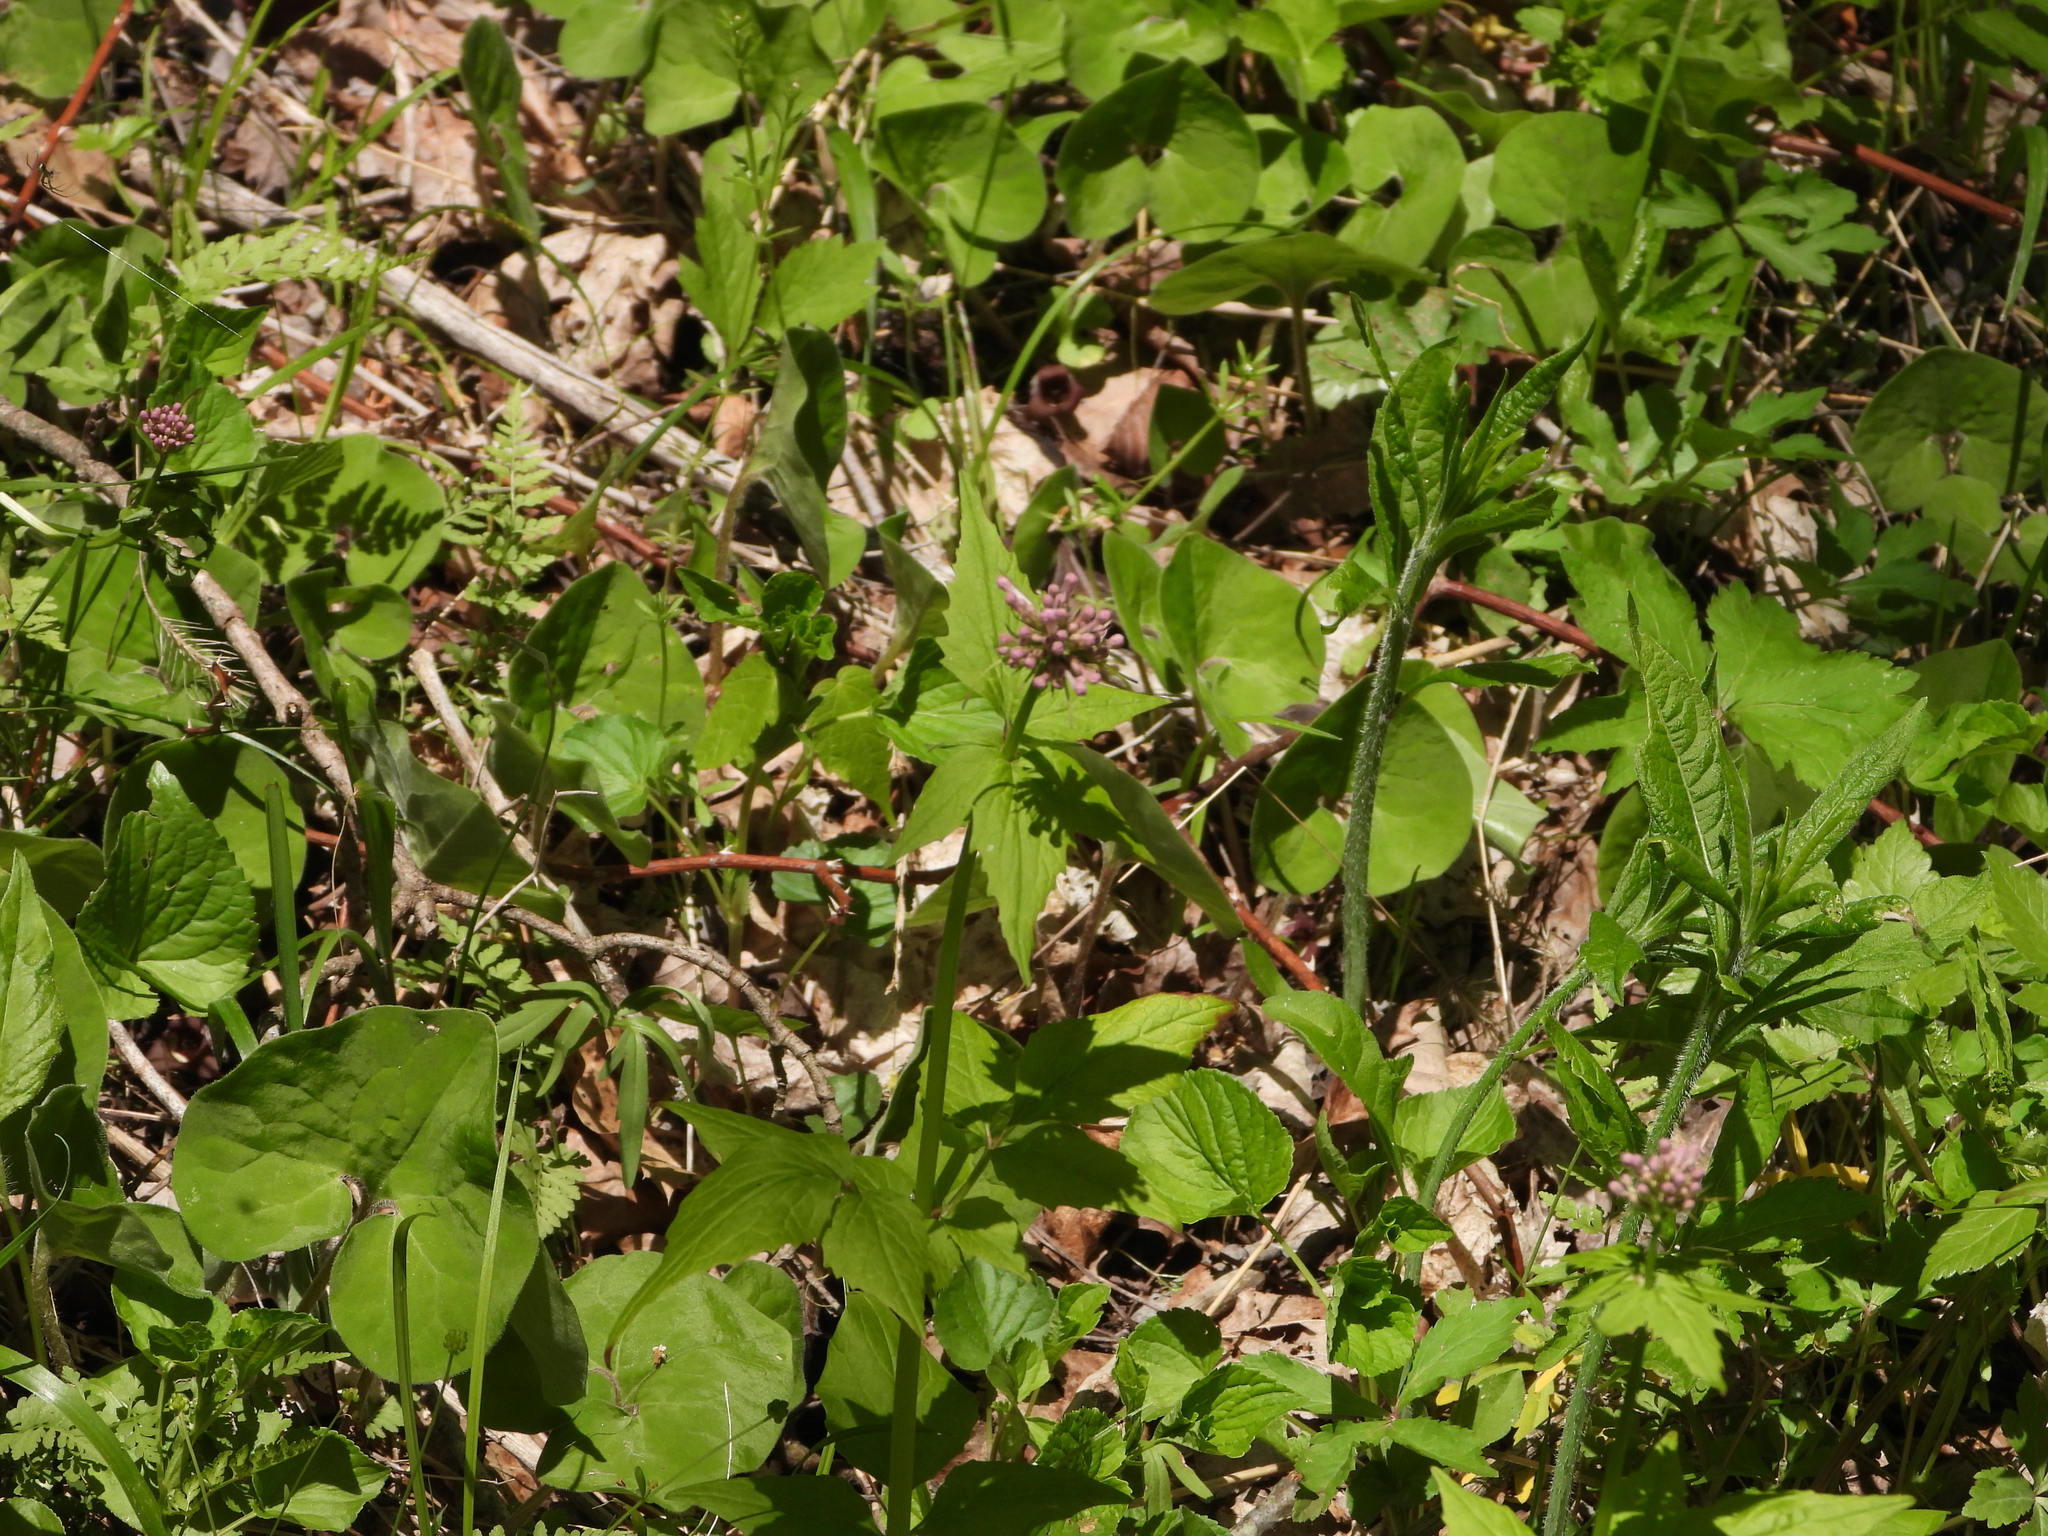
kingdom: Plantae
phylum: Tracheophyta
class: Magnoliopsida
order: Dipsacales
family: Caprifoliaceae
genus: Valeriana
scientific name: Valeriana pauciflora
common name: Long-tube valeriana
